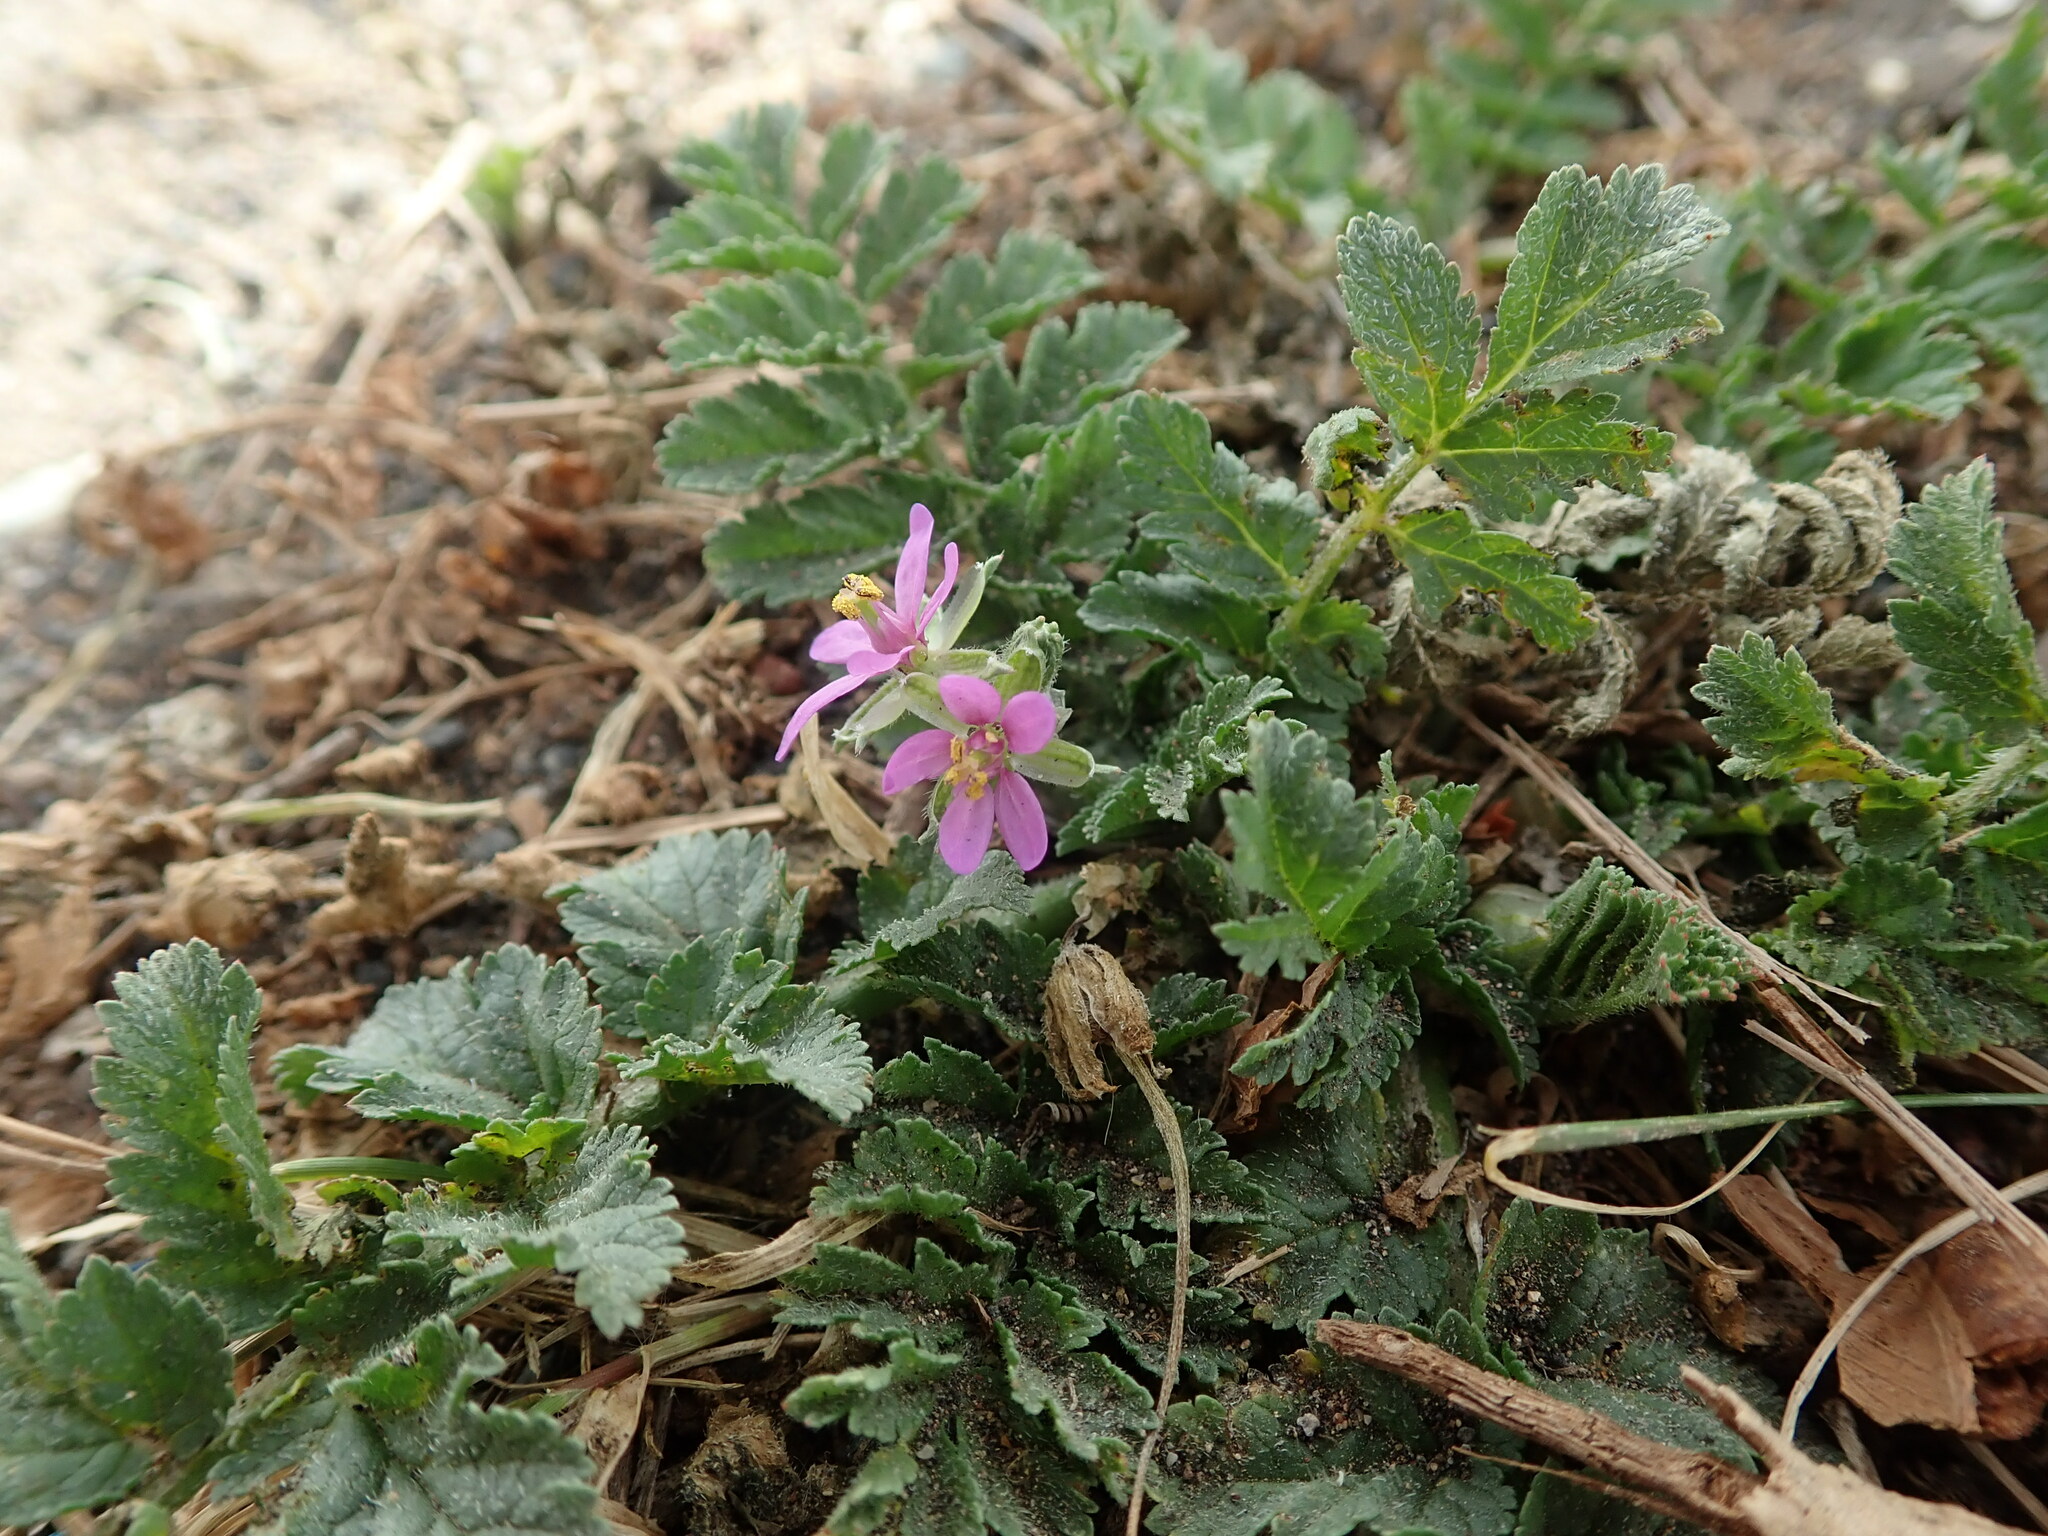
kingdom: Plantae
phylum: Tracheophyta
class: Magnoliopsida
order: Geraniales
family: Geraniaceae
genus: Erodium
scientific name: Erodium moschatum
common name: Musk stork's-bill
